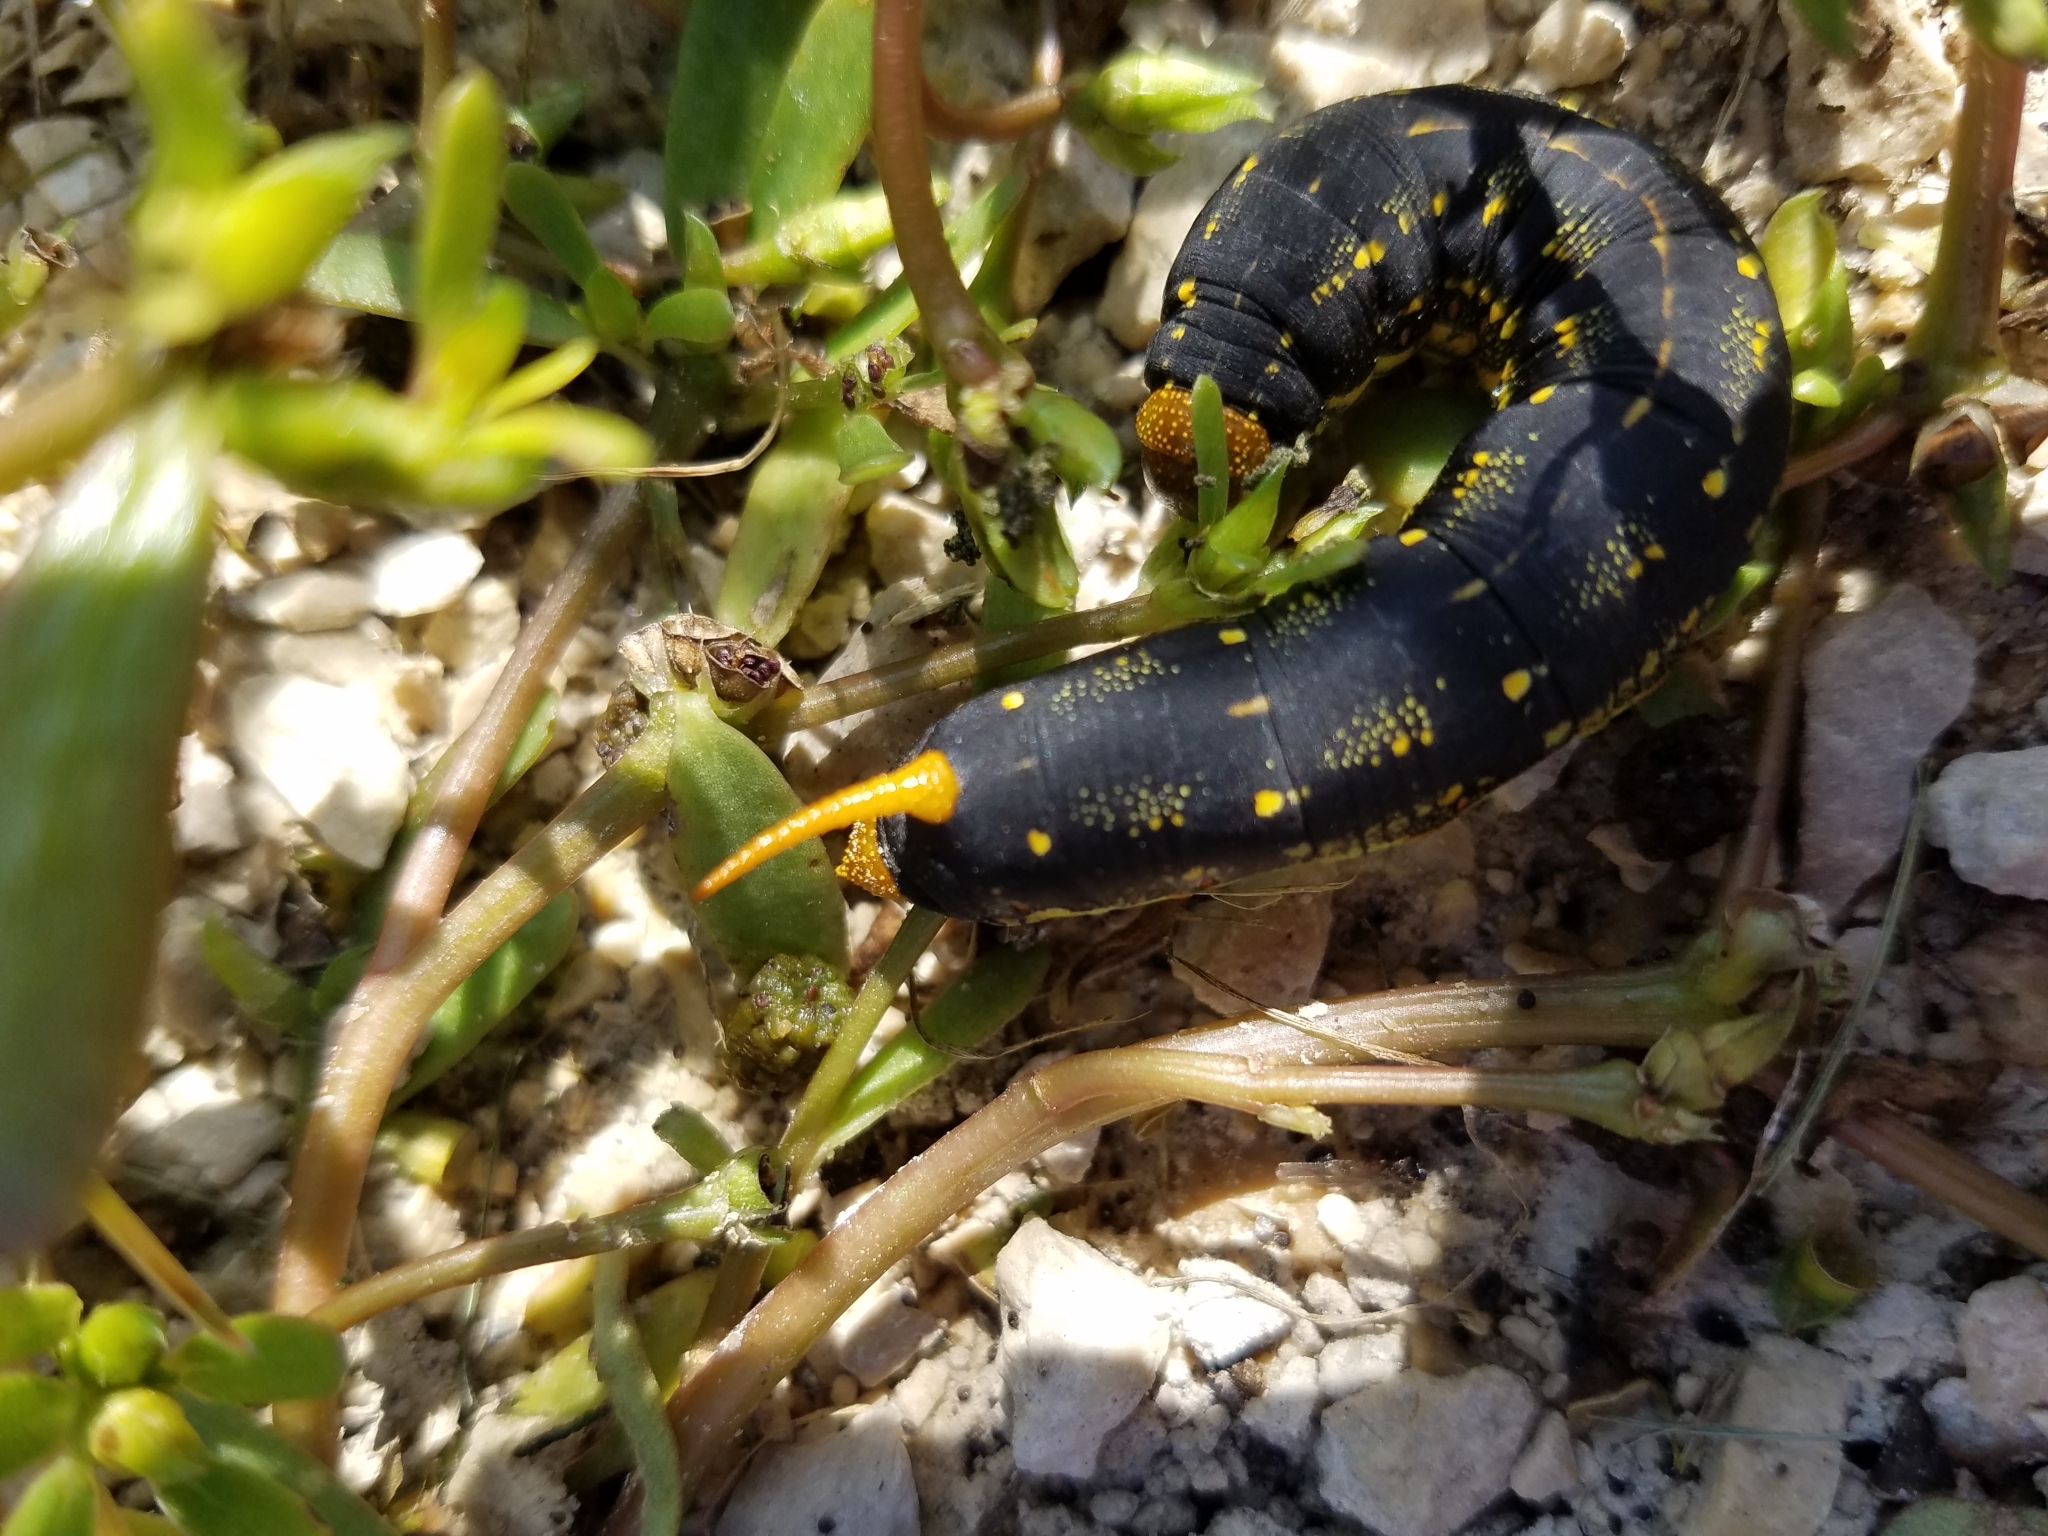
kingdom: Animalia
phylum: Arthropoda
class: Insecta
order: Lepidoptera
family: Sphingidae
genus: Hyles
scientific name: Hyles lineata
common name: White-lined sphinx
